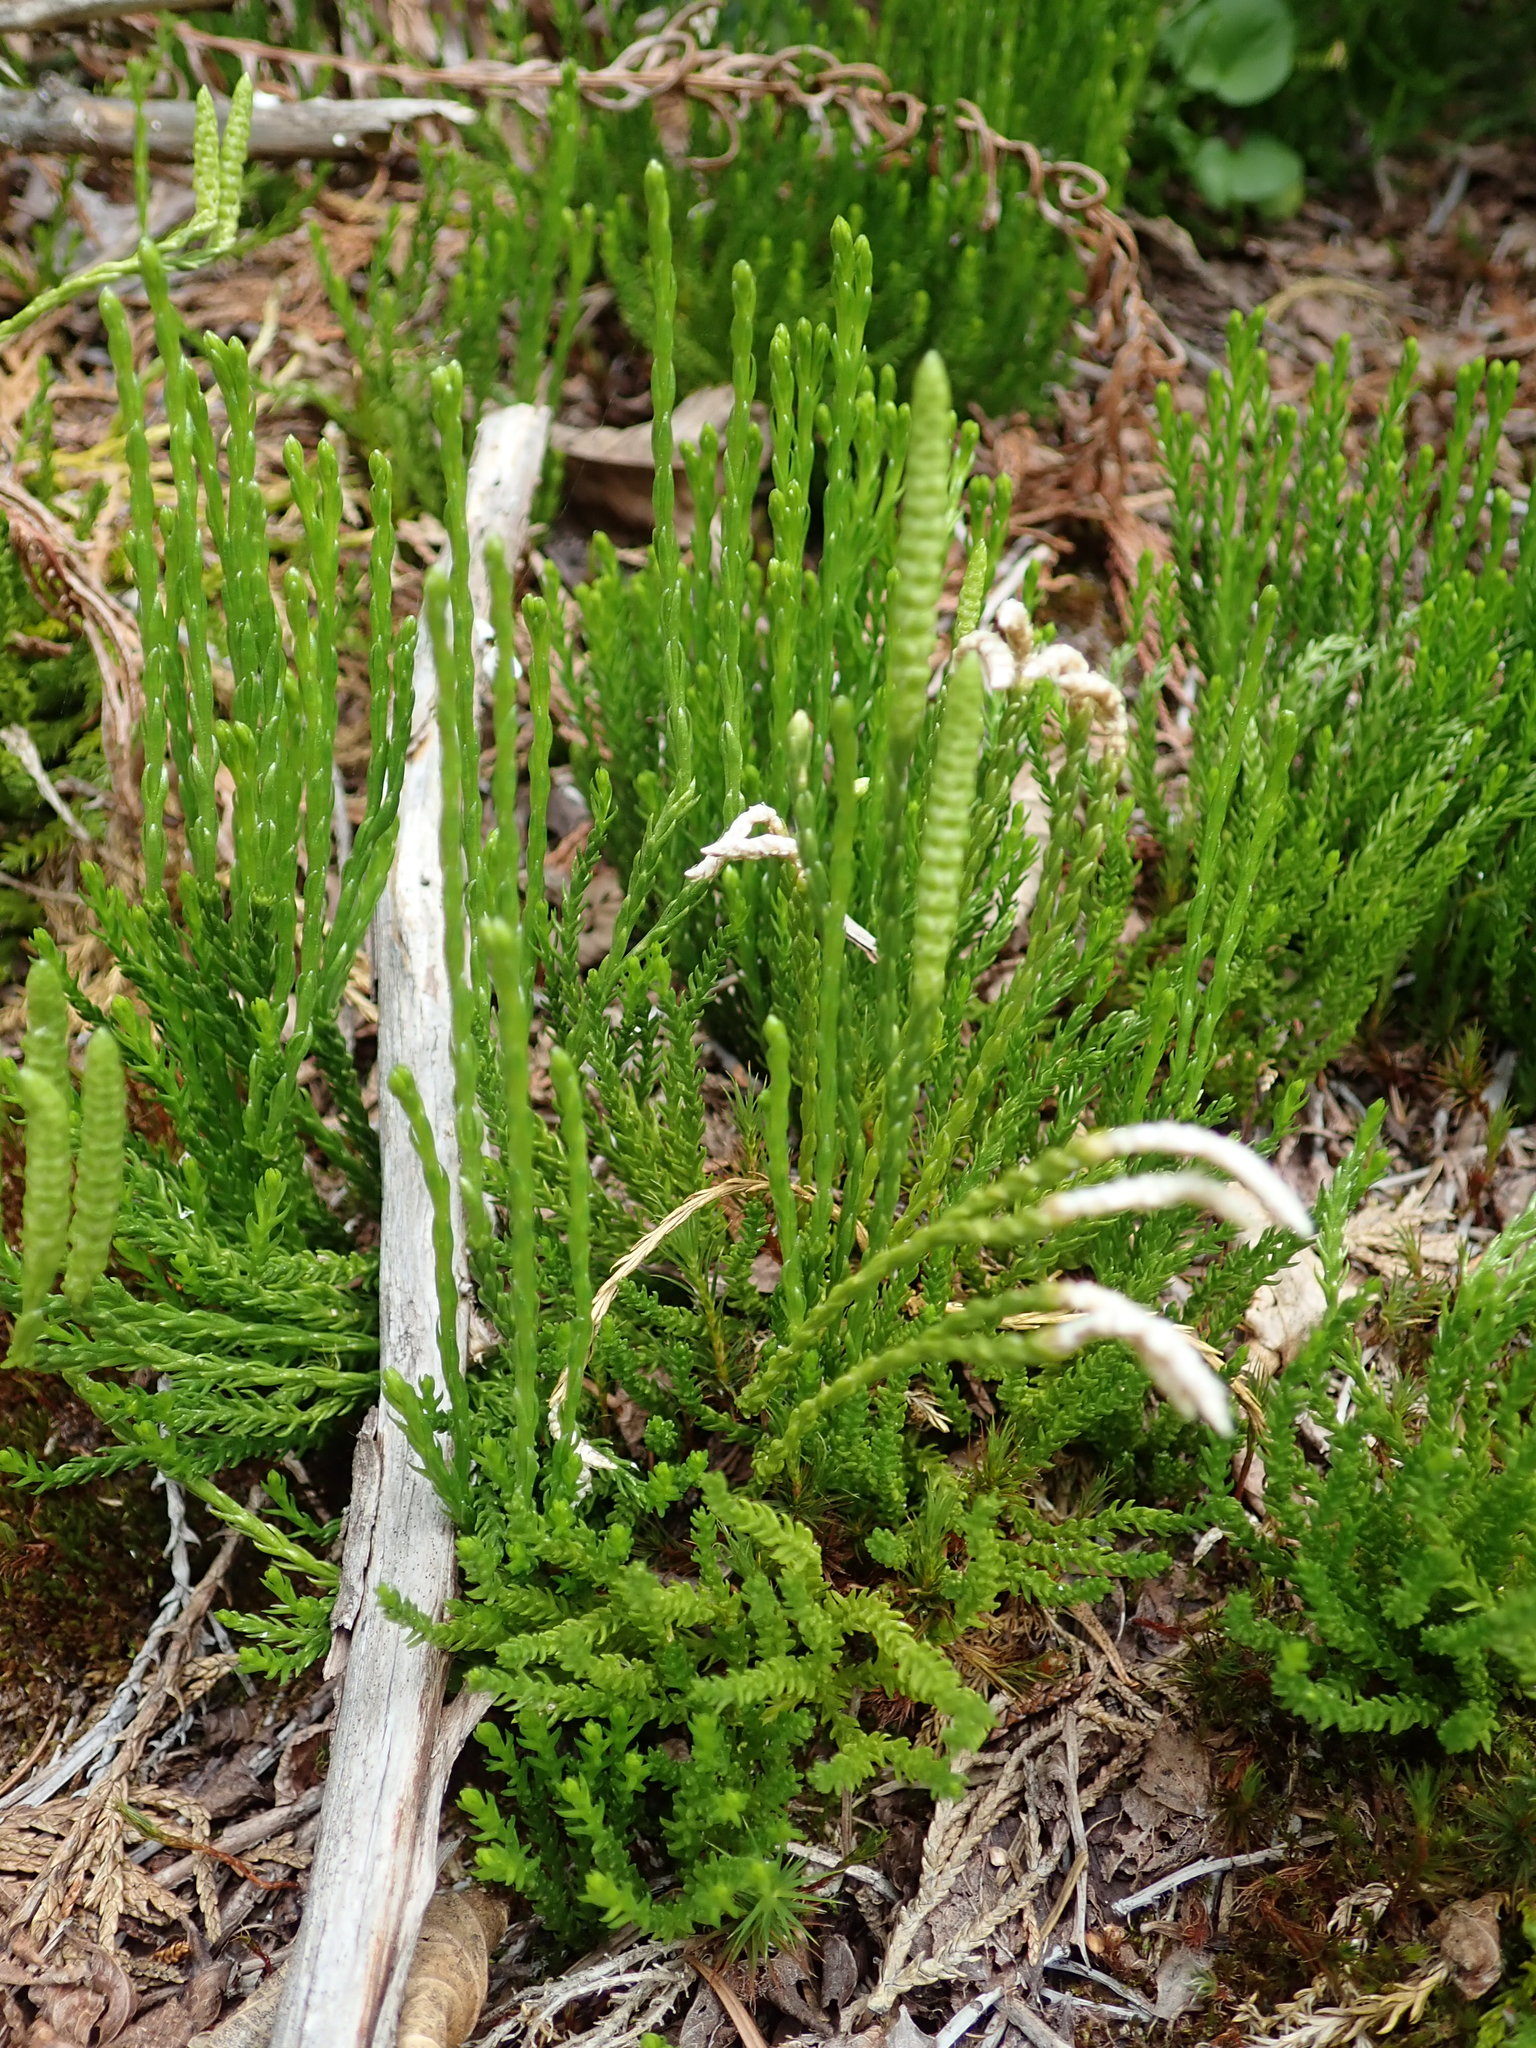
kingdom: Plantae
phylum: Tracheophyta
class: Lycopodiopsida
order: Lycopodiales
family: Lycopodiaceae
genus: Diphasiastrum
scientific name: Diphasiastrum sitchense
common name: Alaska clubmoss
